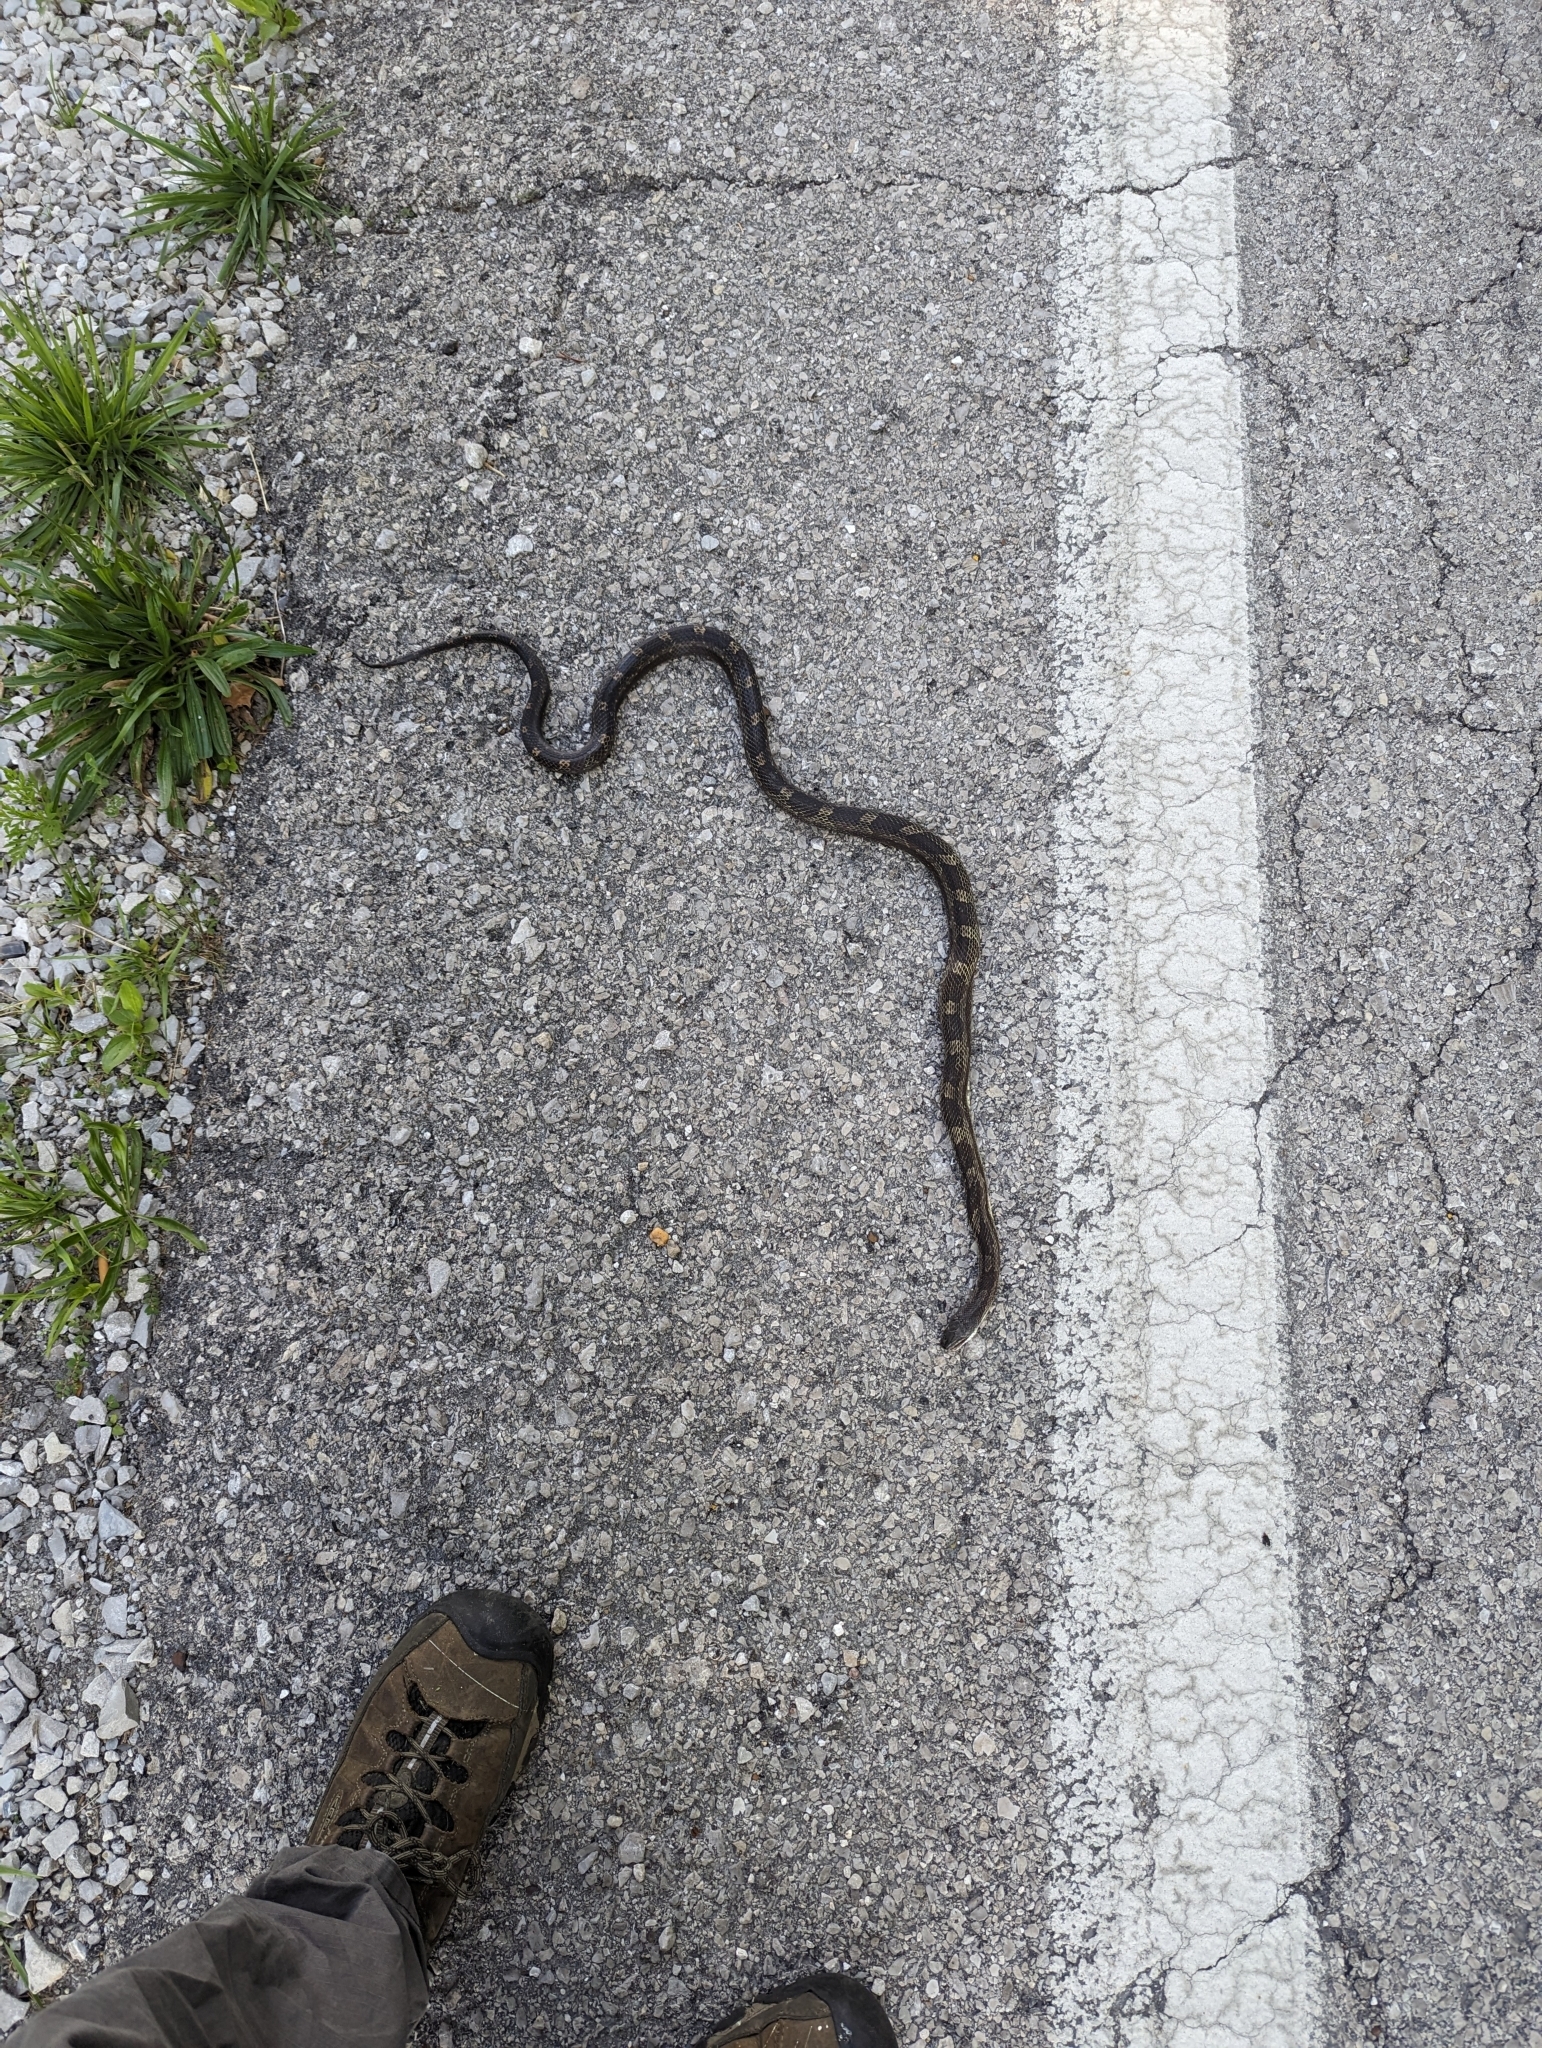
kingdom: Animalia
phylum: Chordata
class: Squamata
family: Colubridae
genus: Pantherophis
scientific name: Pantherophis spiloides
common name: Gray rat snake
